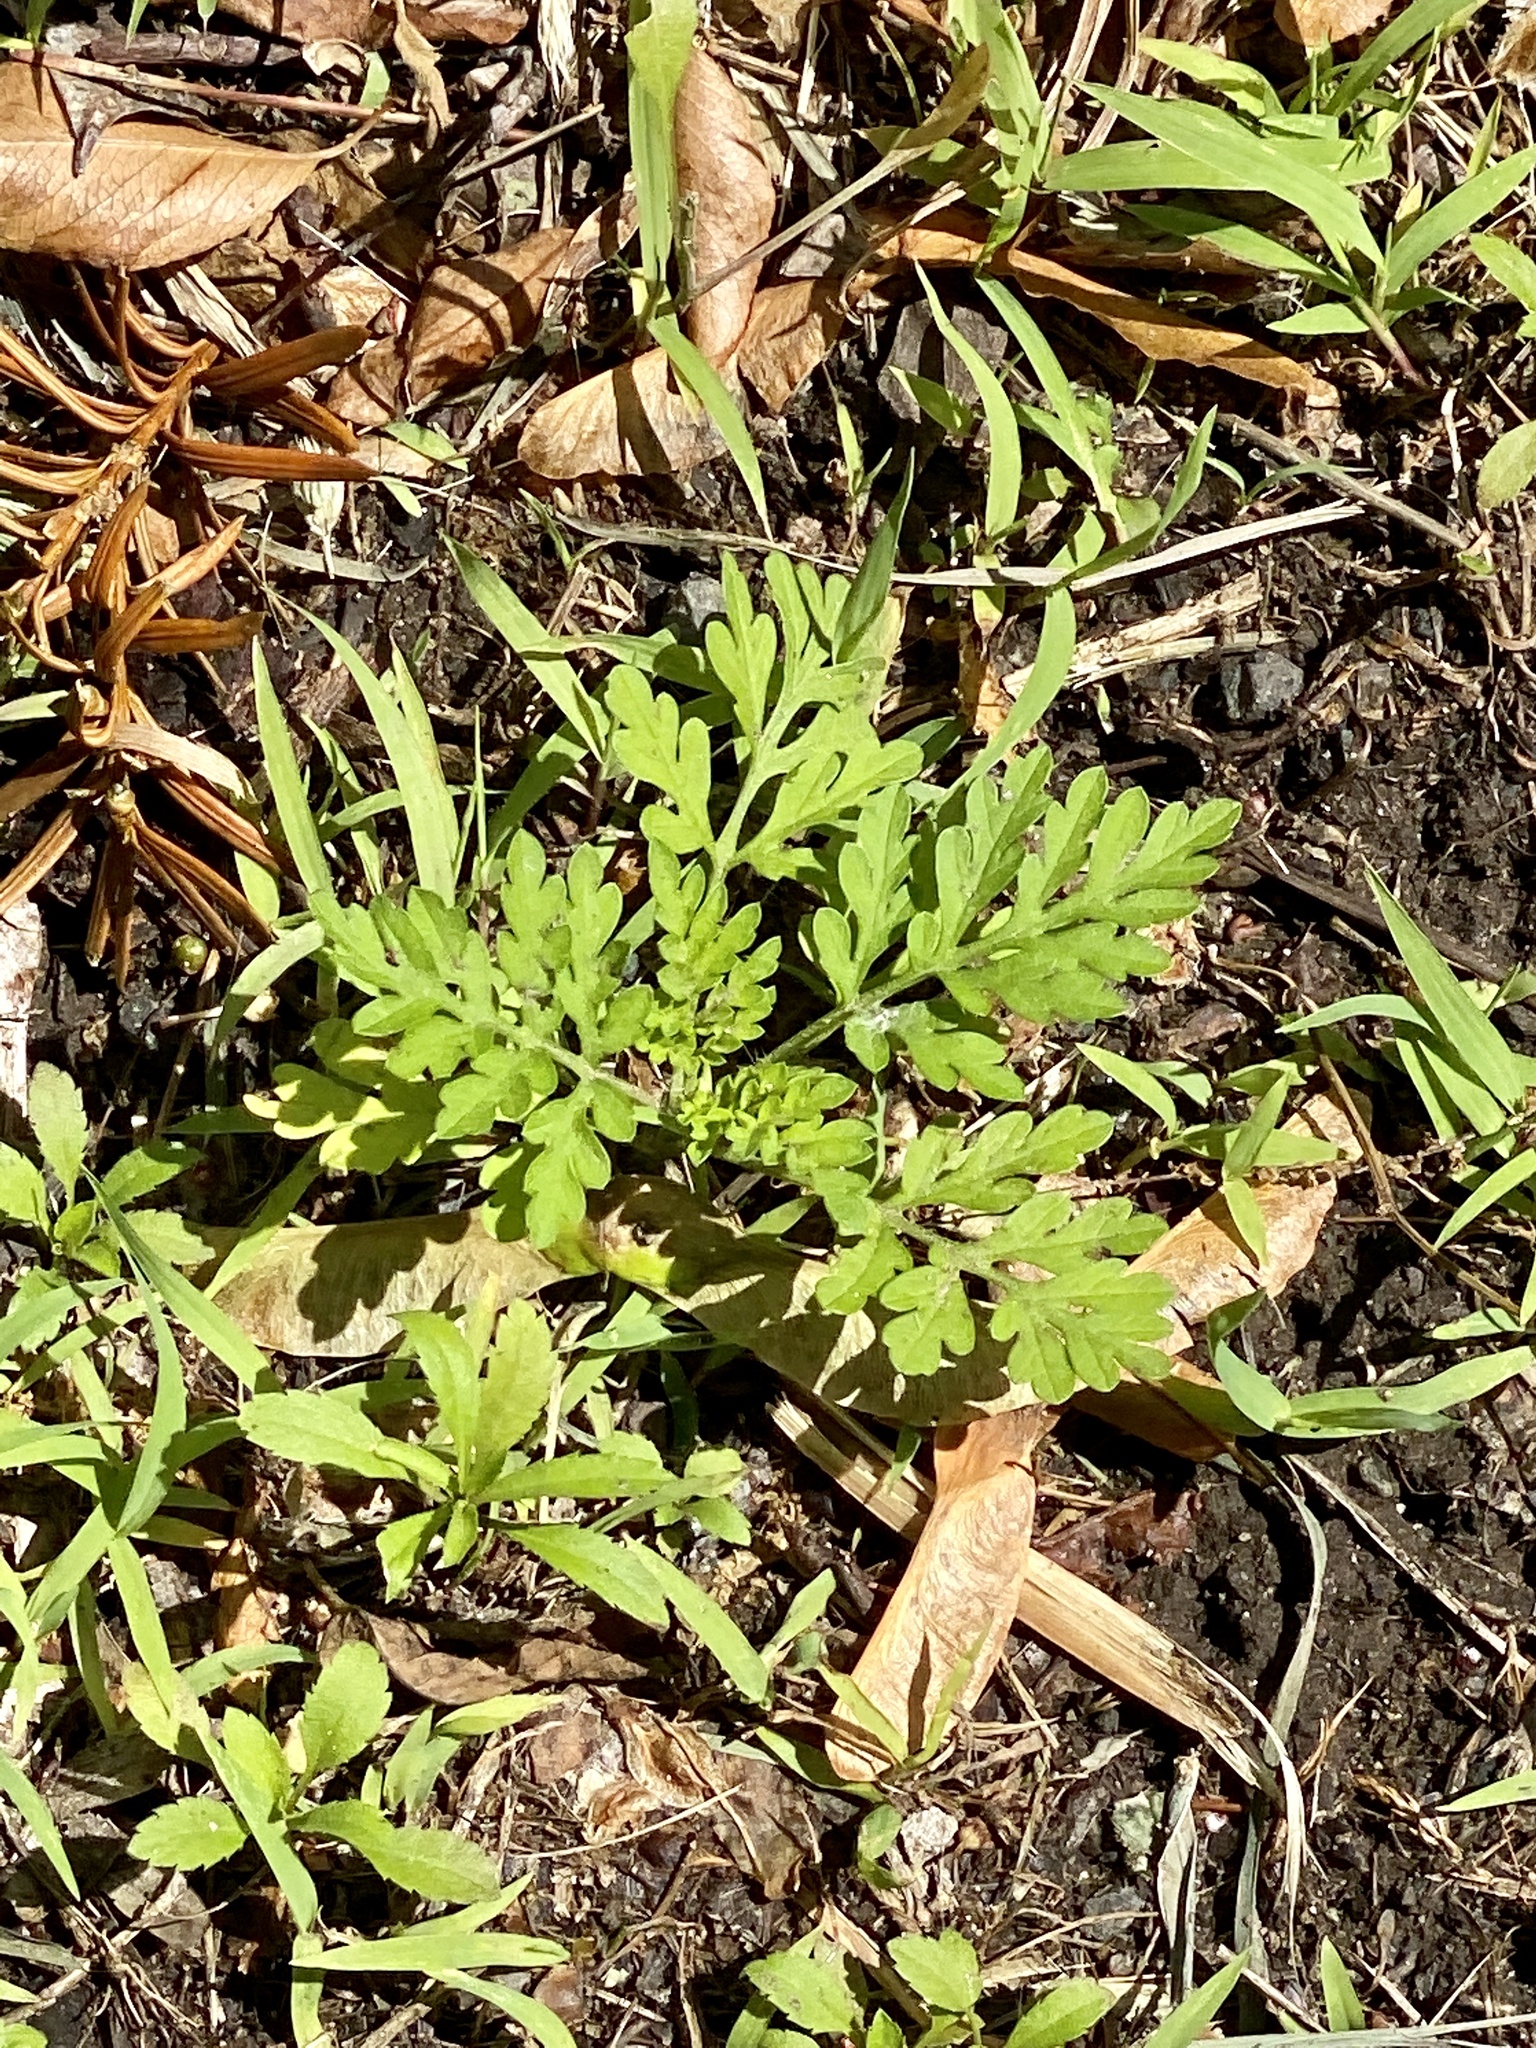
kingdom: Plantae
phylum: Tracheophyta
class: Magnoliopsida
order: Asterales
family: Asteraceae
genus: Ambrosia
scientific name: Ambrosia artemisiifolia
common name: Annual ragweed
